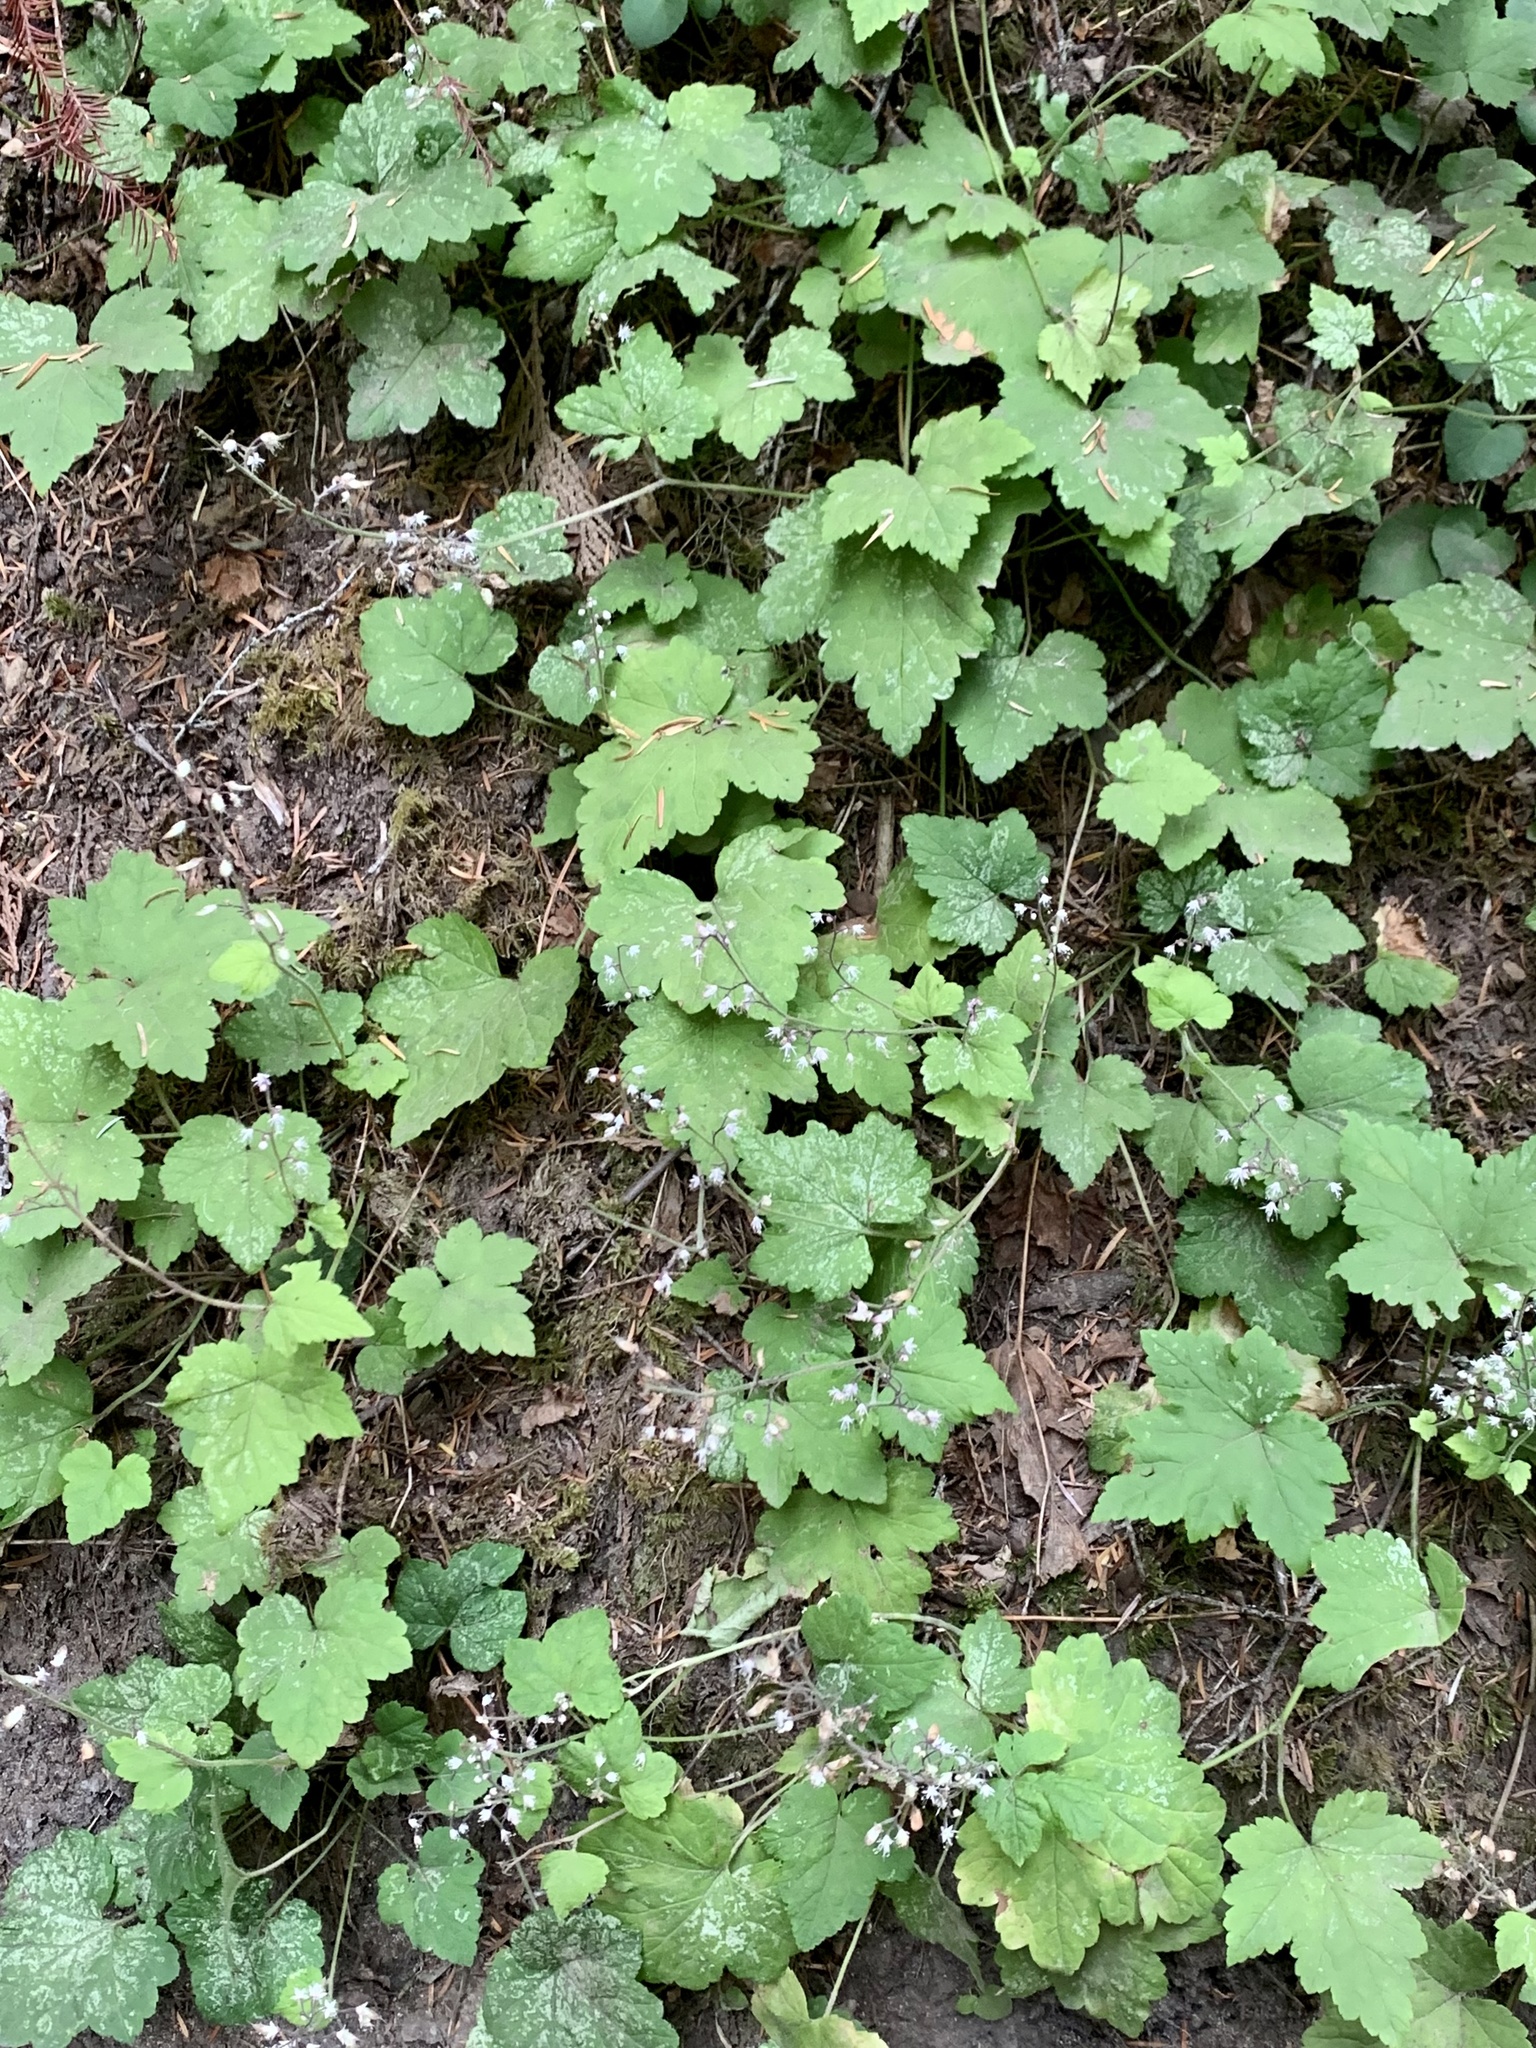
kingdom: Plantae
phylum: Tracheophyta
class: Magnoliopsida
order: Saxifragales
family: Saxifragaceae
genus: Tiarella
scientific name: Tiarella trifoliata
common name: Sugar-scoop
